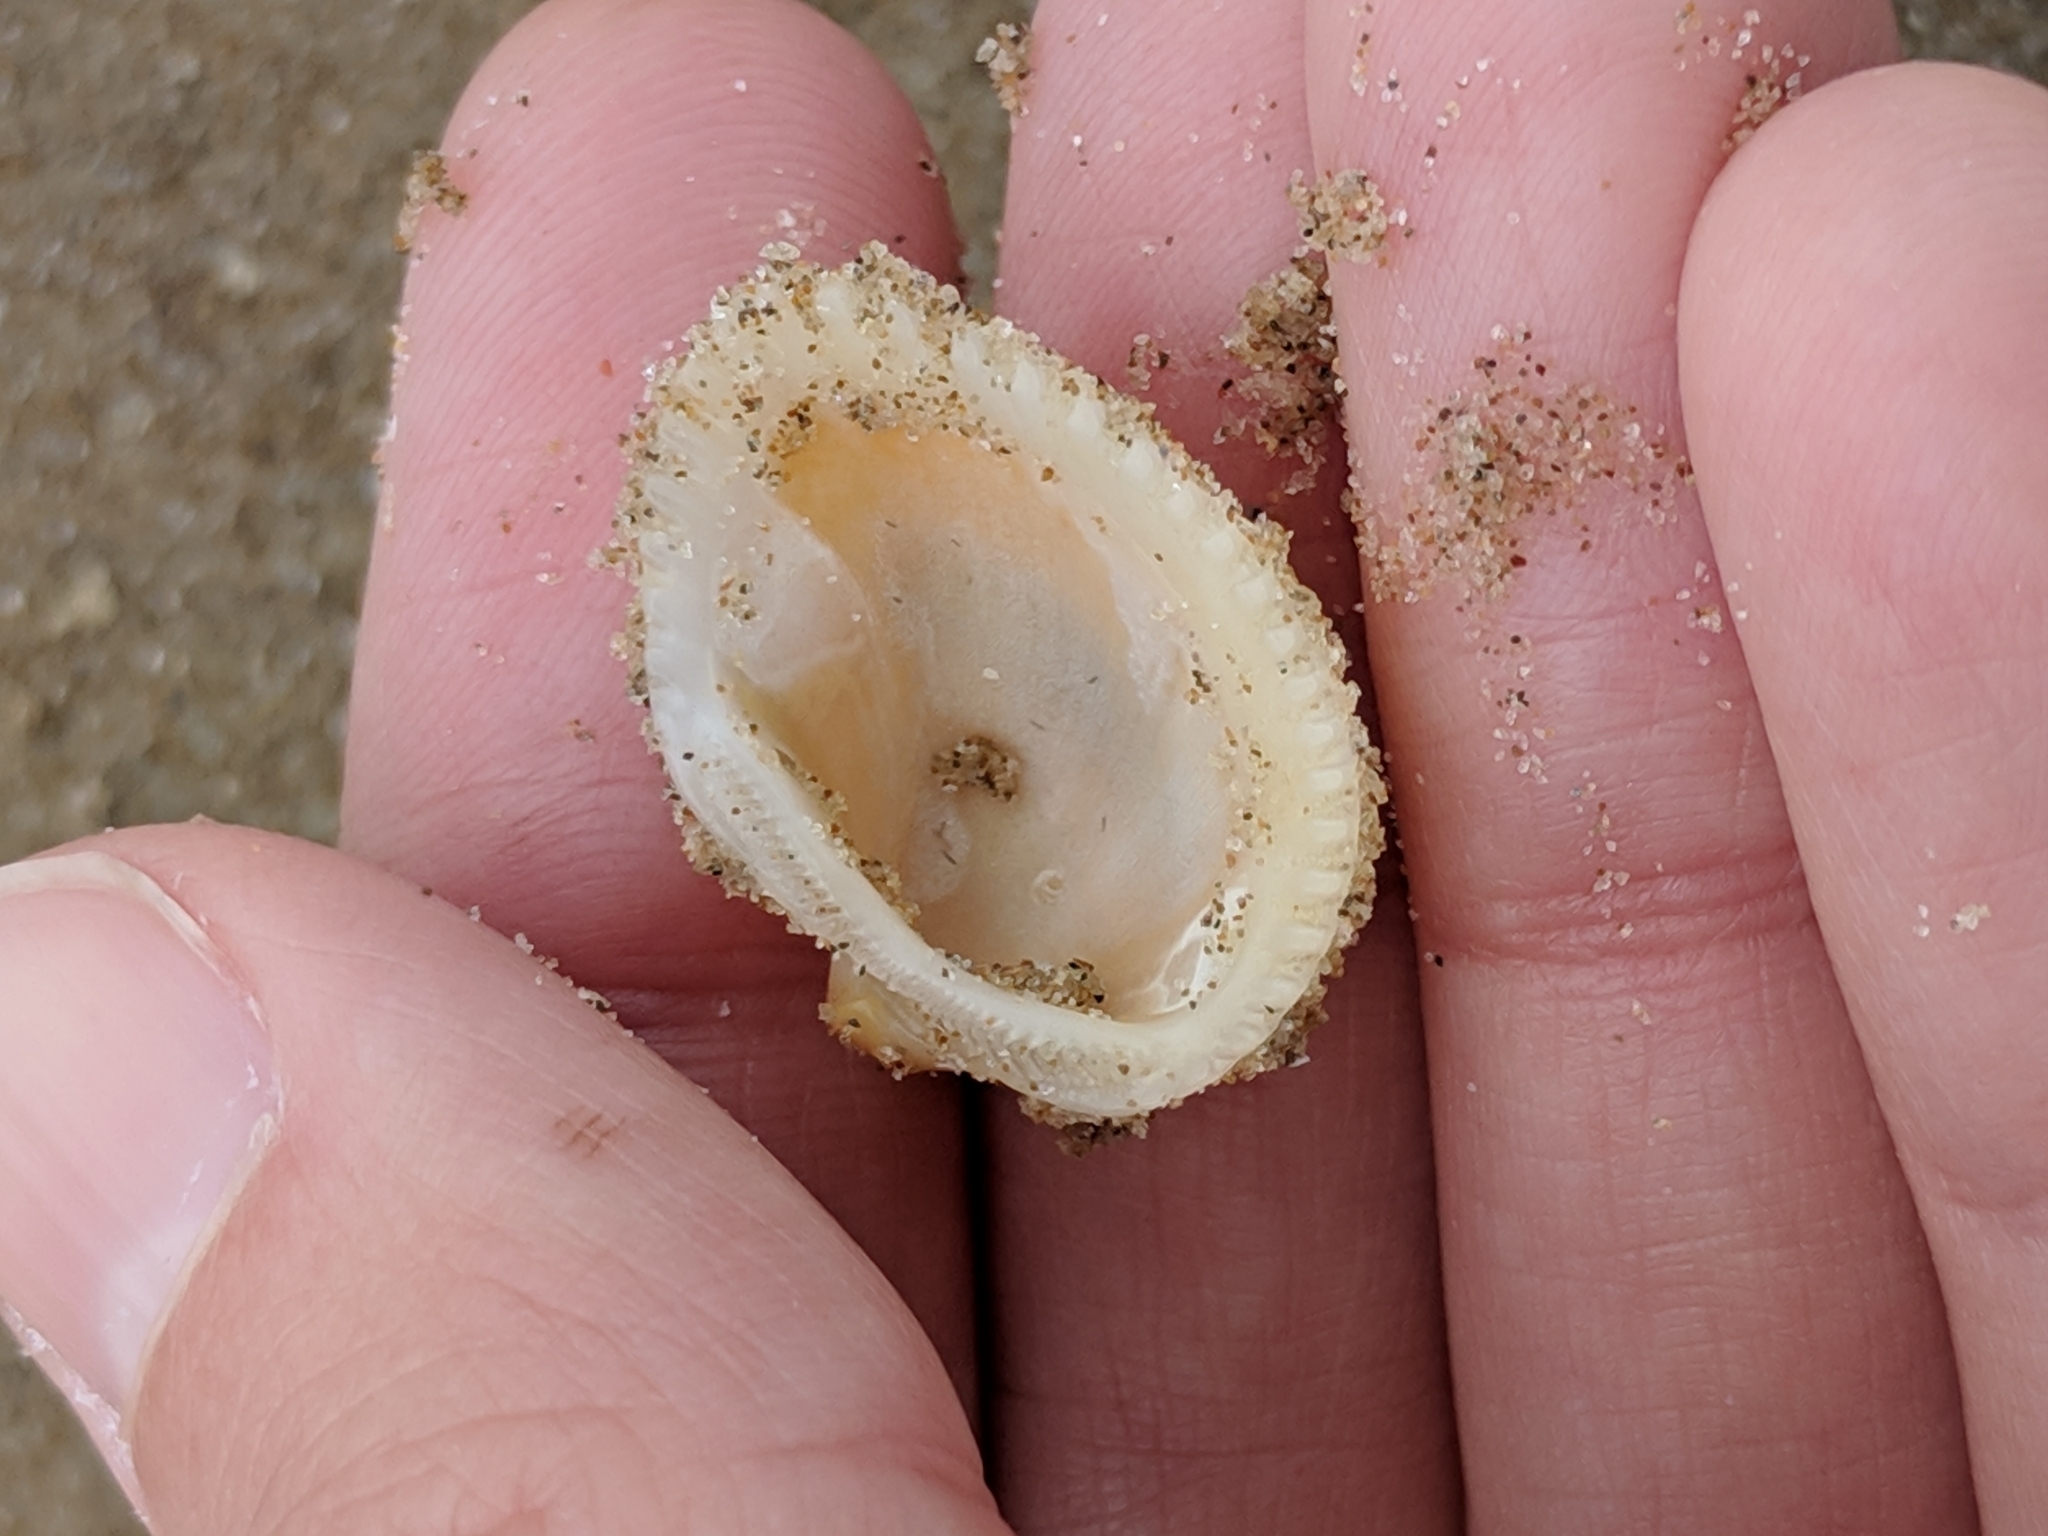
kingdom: Animalia
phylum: Mollusca
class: Bivalvia
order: Arcida
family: Noetiidae
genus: Noetia
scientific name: Noetia ponderosa
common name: Ponderous ark
